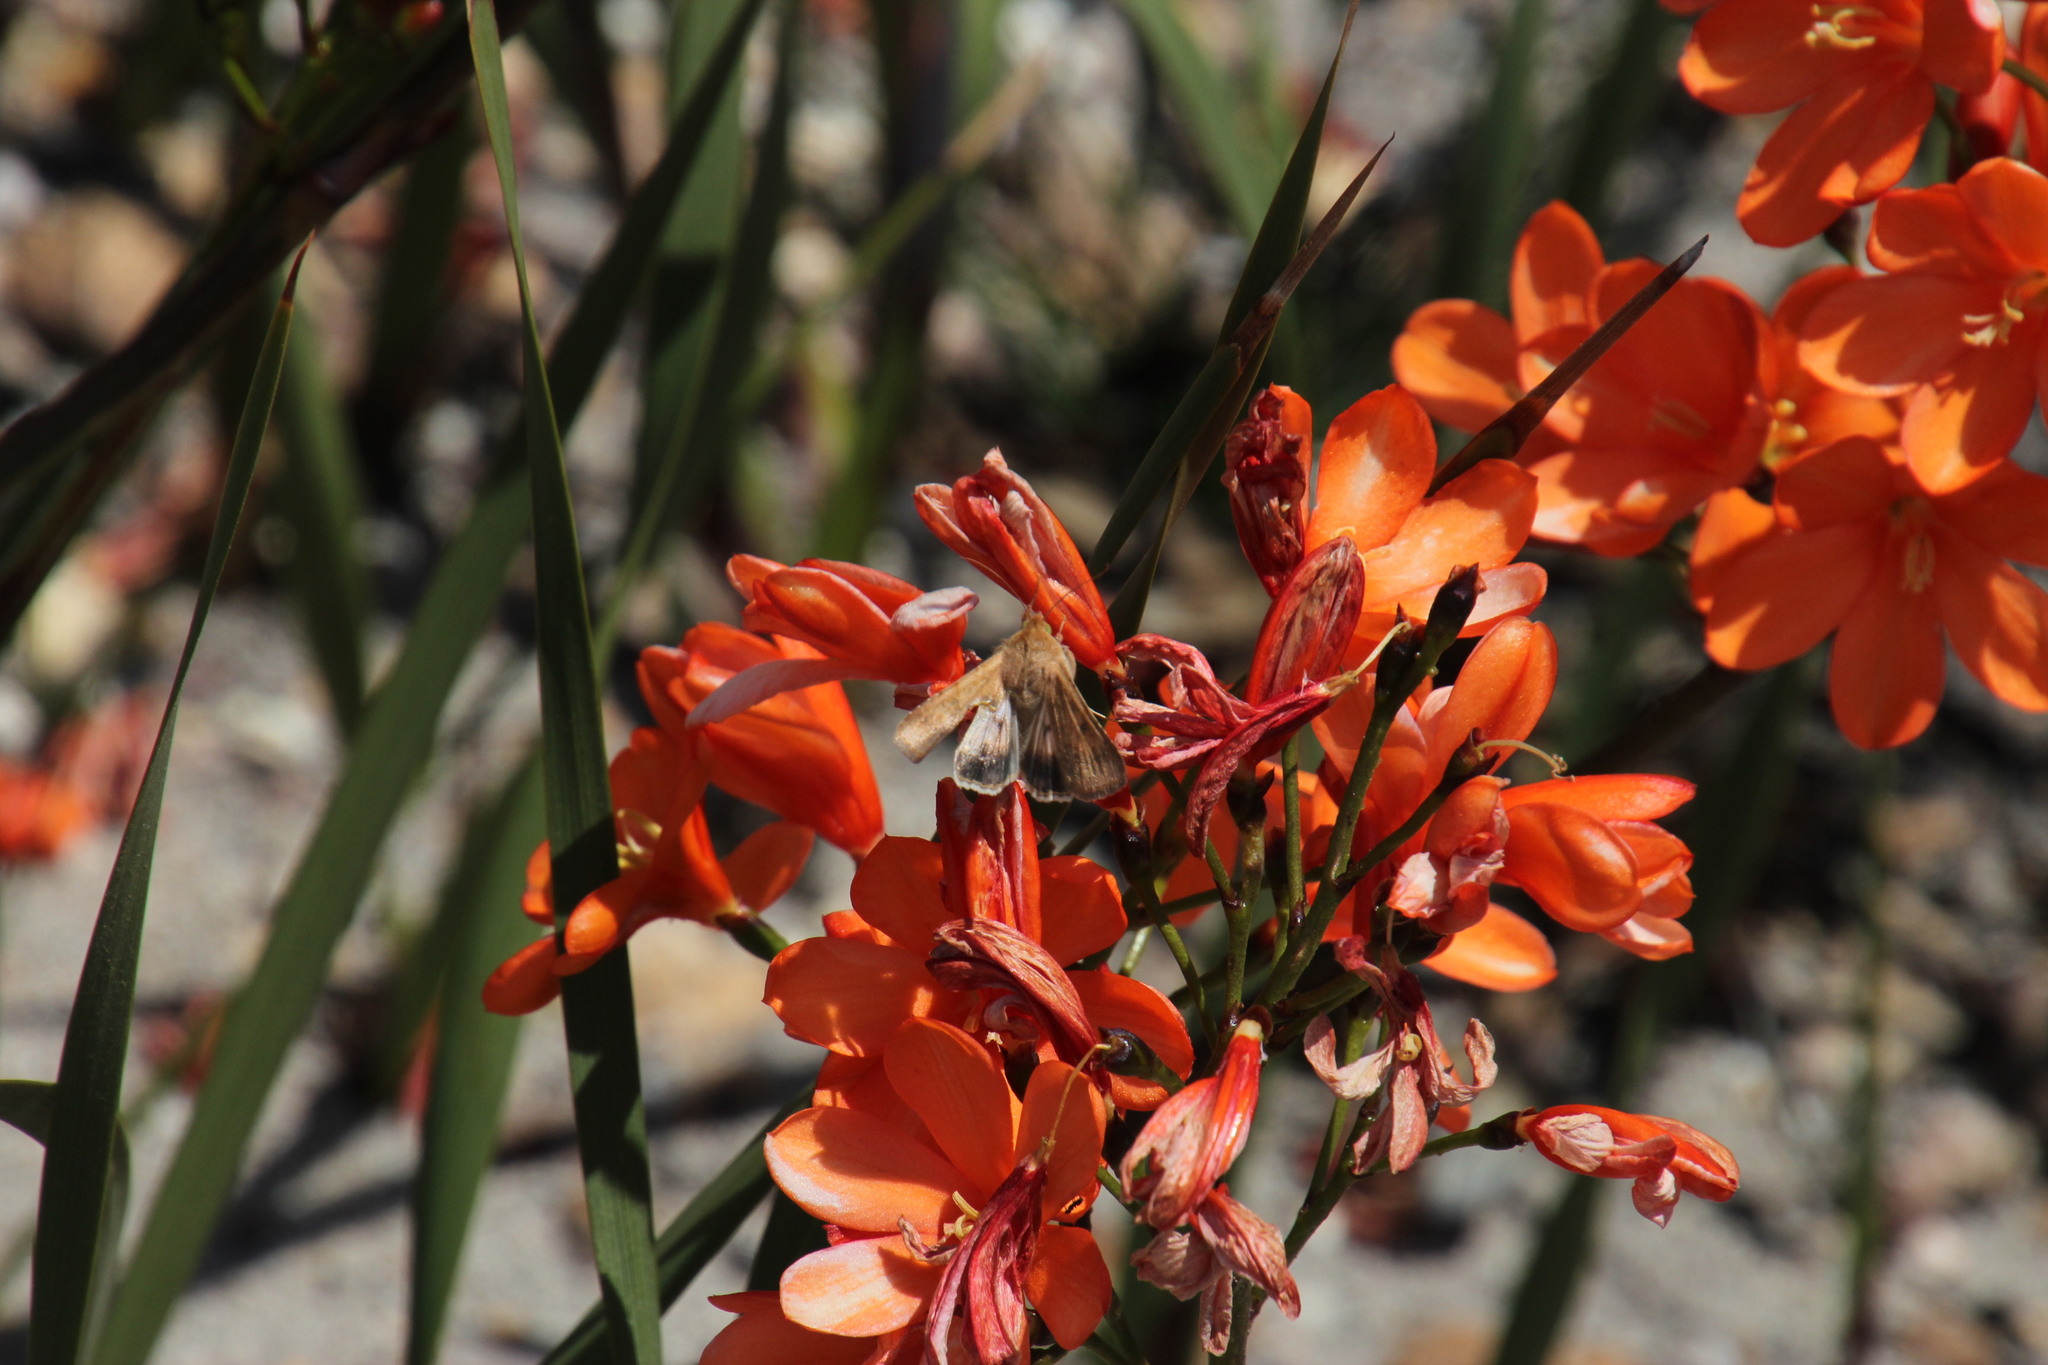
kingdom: Plantae
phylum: Tracheophyta
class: Liliopsida
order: Asparagales
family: Iridaceae
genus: Pillansia
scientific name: Pillansia templemannii
